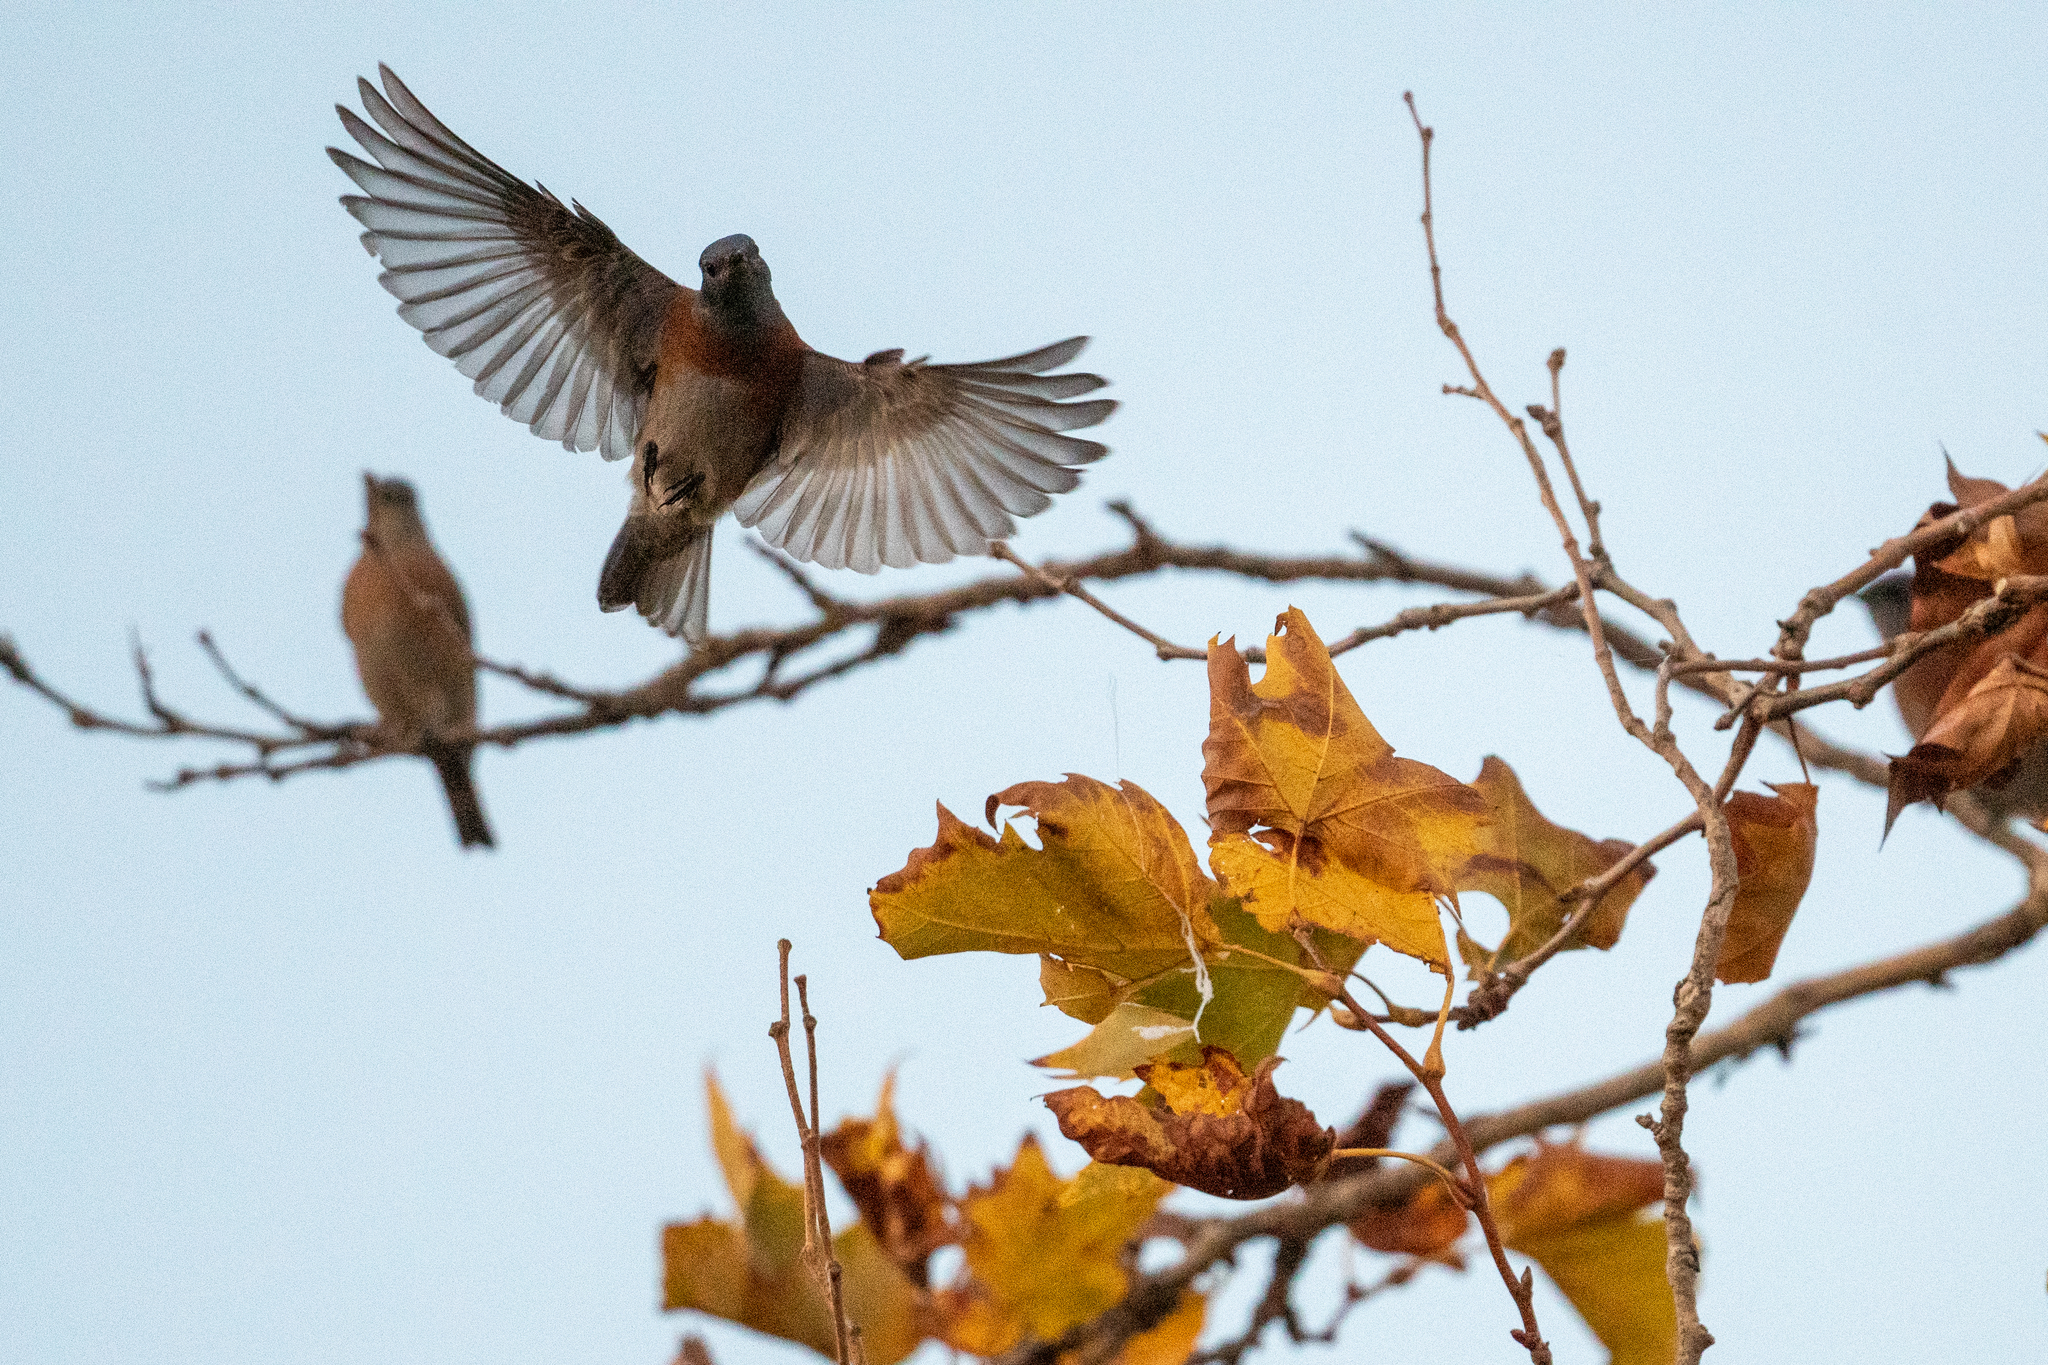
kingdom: Animalia
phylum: Chordata
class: Aves
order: Passeriformes
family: Turdidae
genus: Sialia
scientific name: Sialia mexicana
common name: Western bluebird
